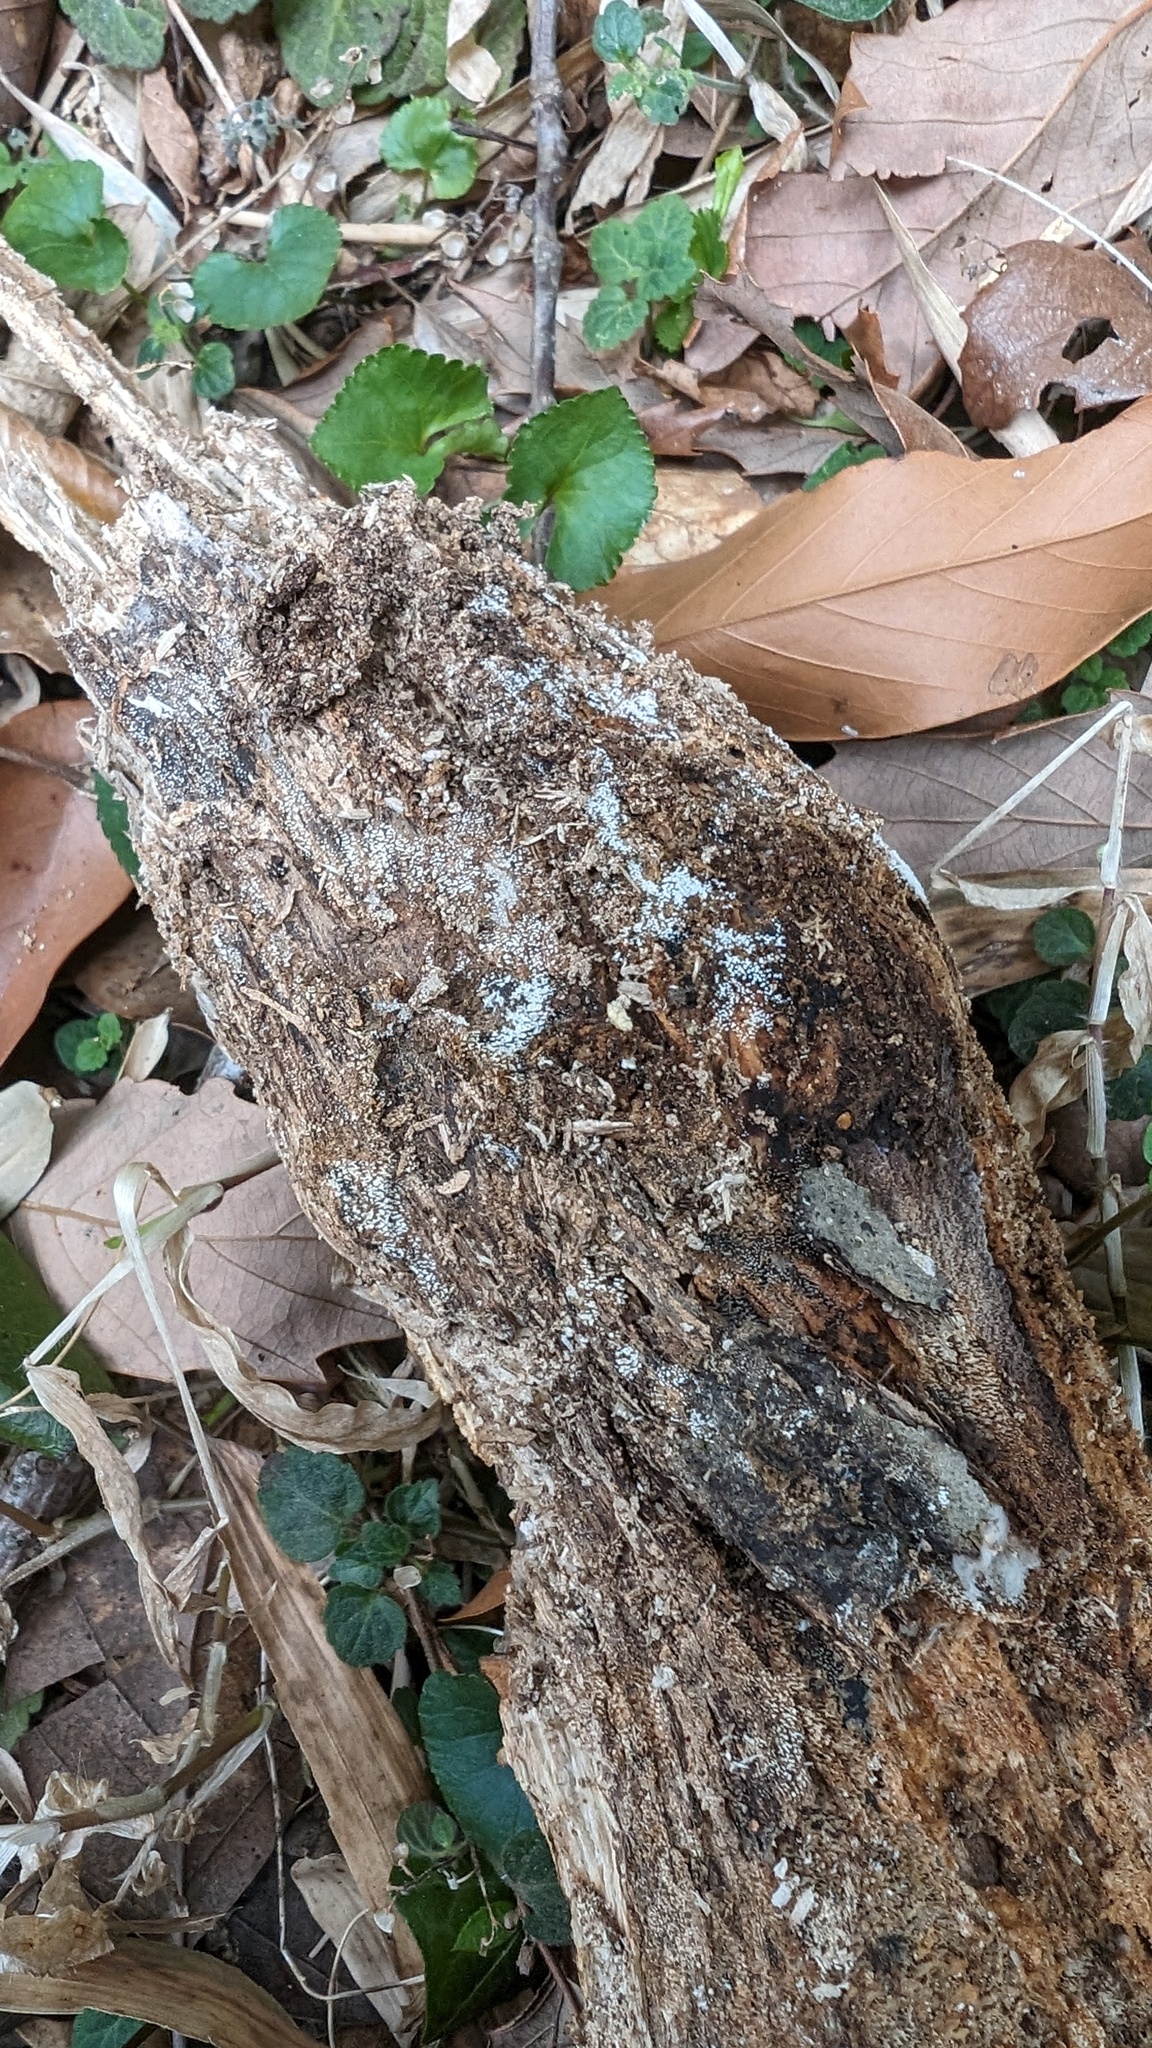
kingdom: Fungi
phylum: Basidiomycota
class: Agaricomycetes
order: Agaricales
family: Marasmiaceae
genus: Henningsomyces
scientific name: Henningsomyces candidus
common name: White tubelet
